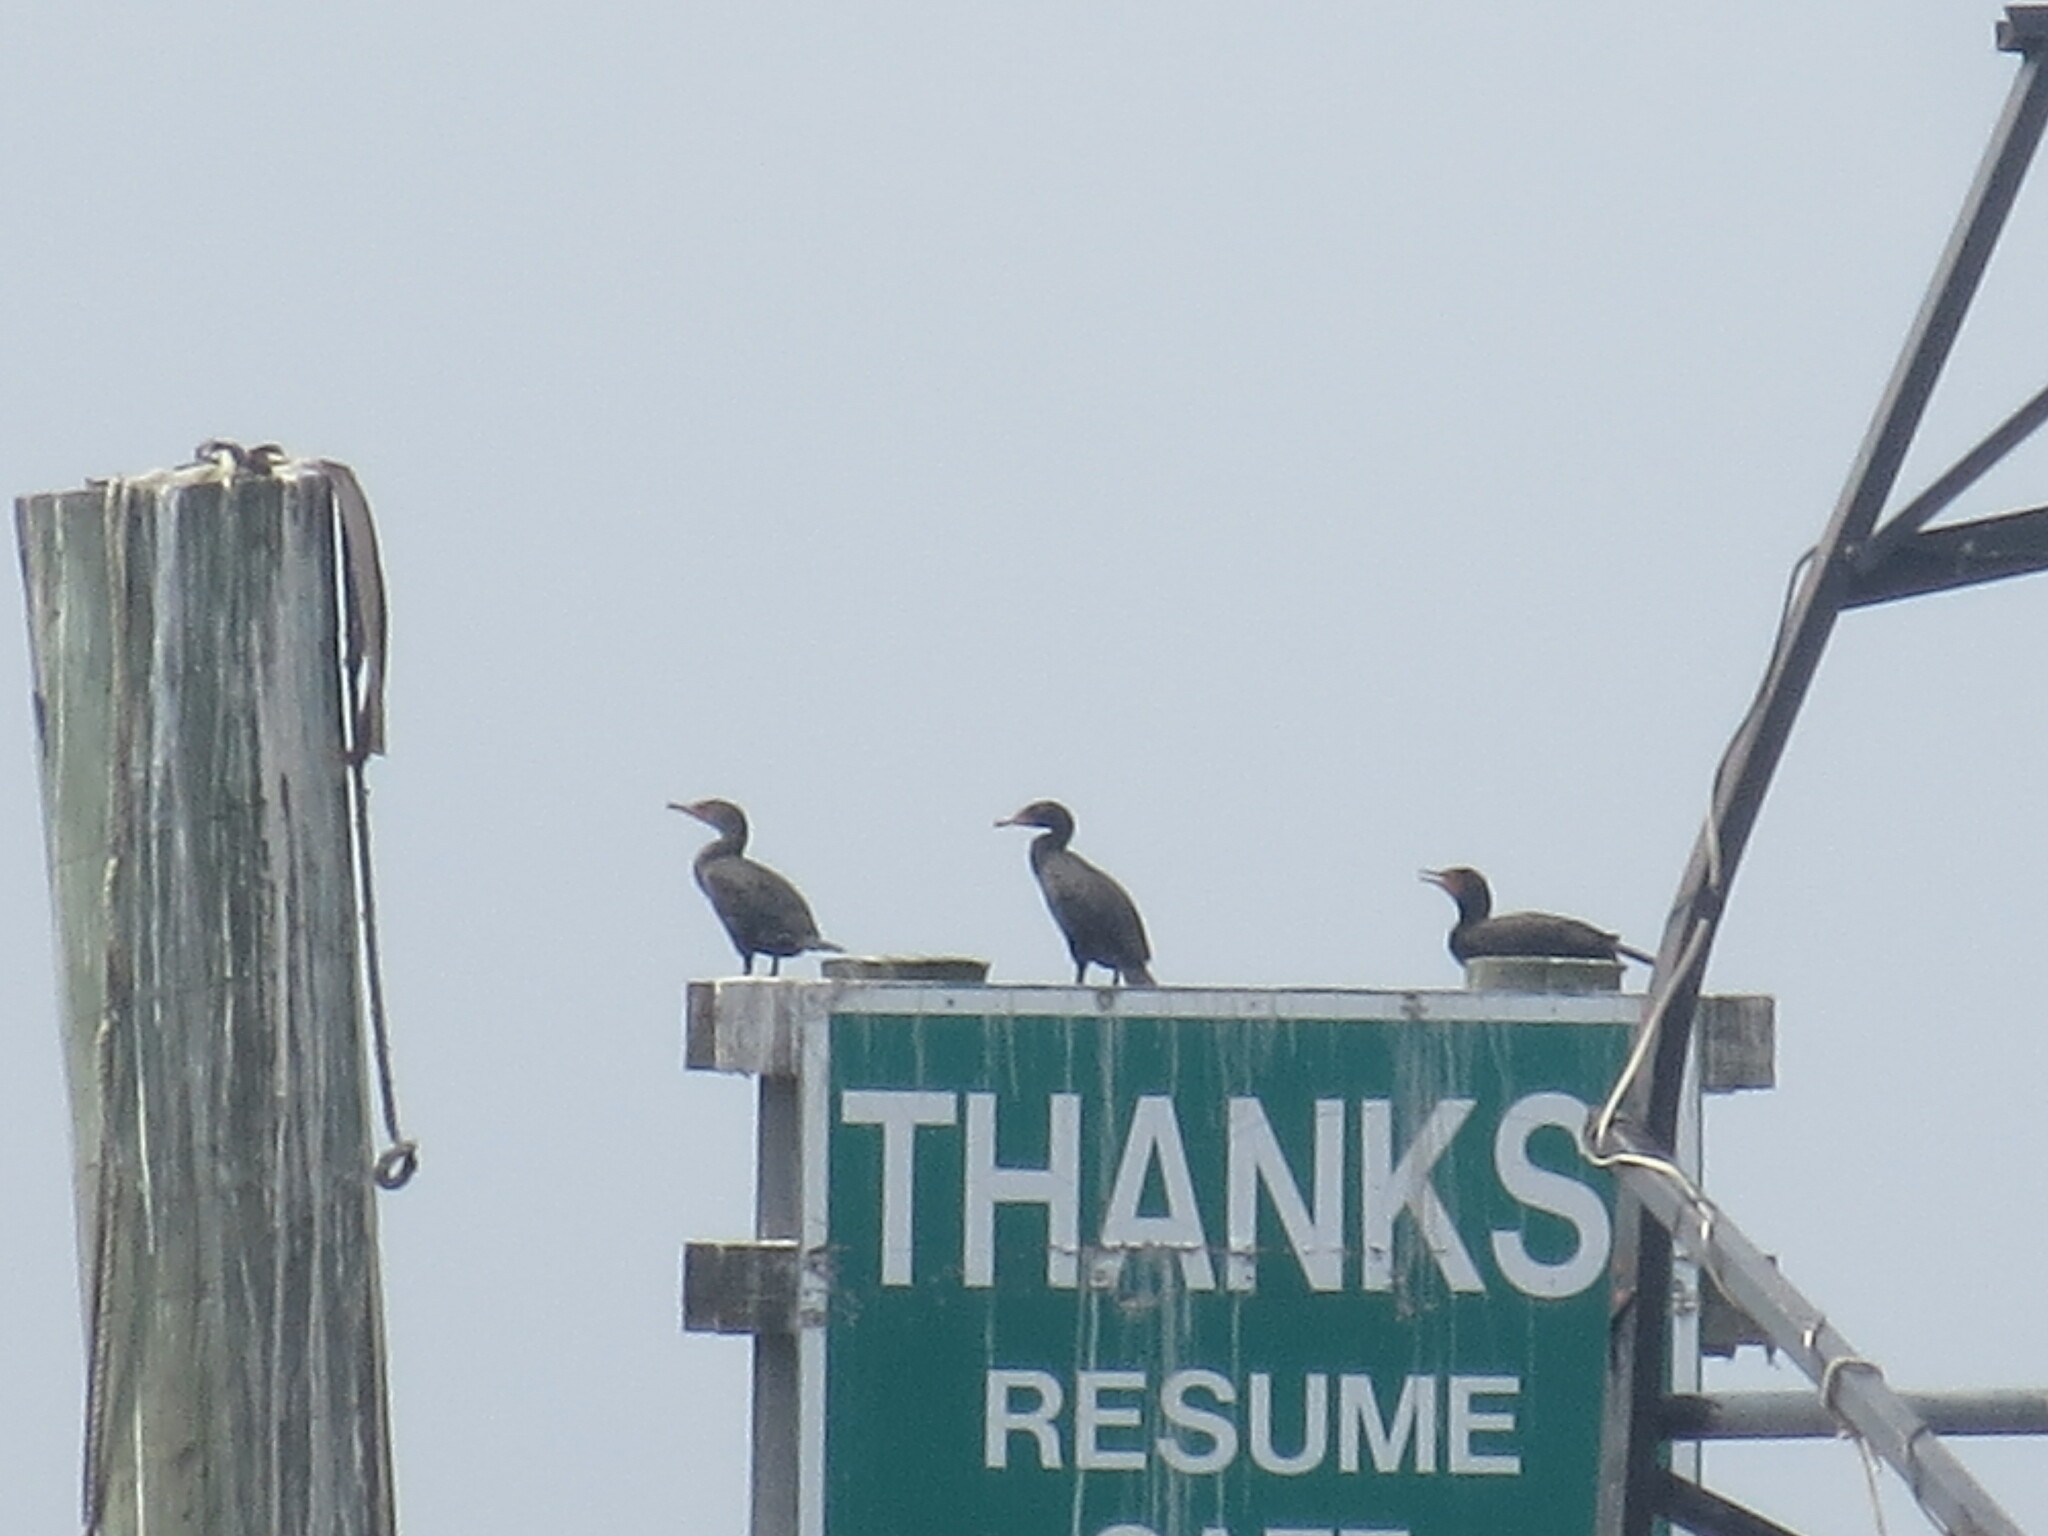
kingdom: Animalia
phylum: Chordata
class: Aves
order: Suliformes
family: Phalacrocoracidae
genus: Phalacrocorax
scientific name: Phalacrocorax auritus
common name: Double-crested cormorant
